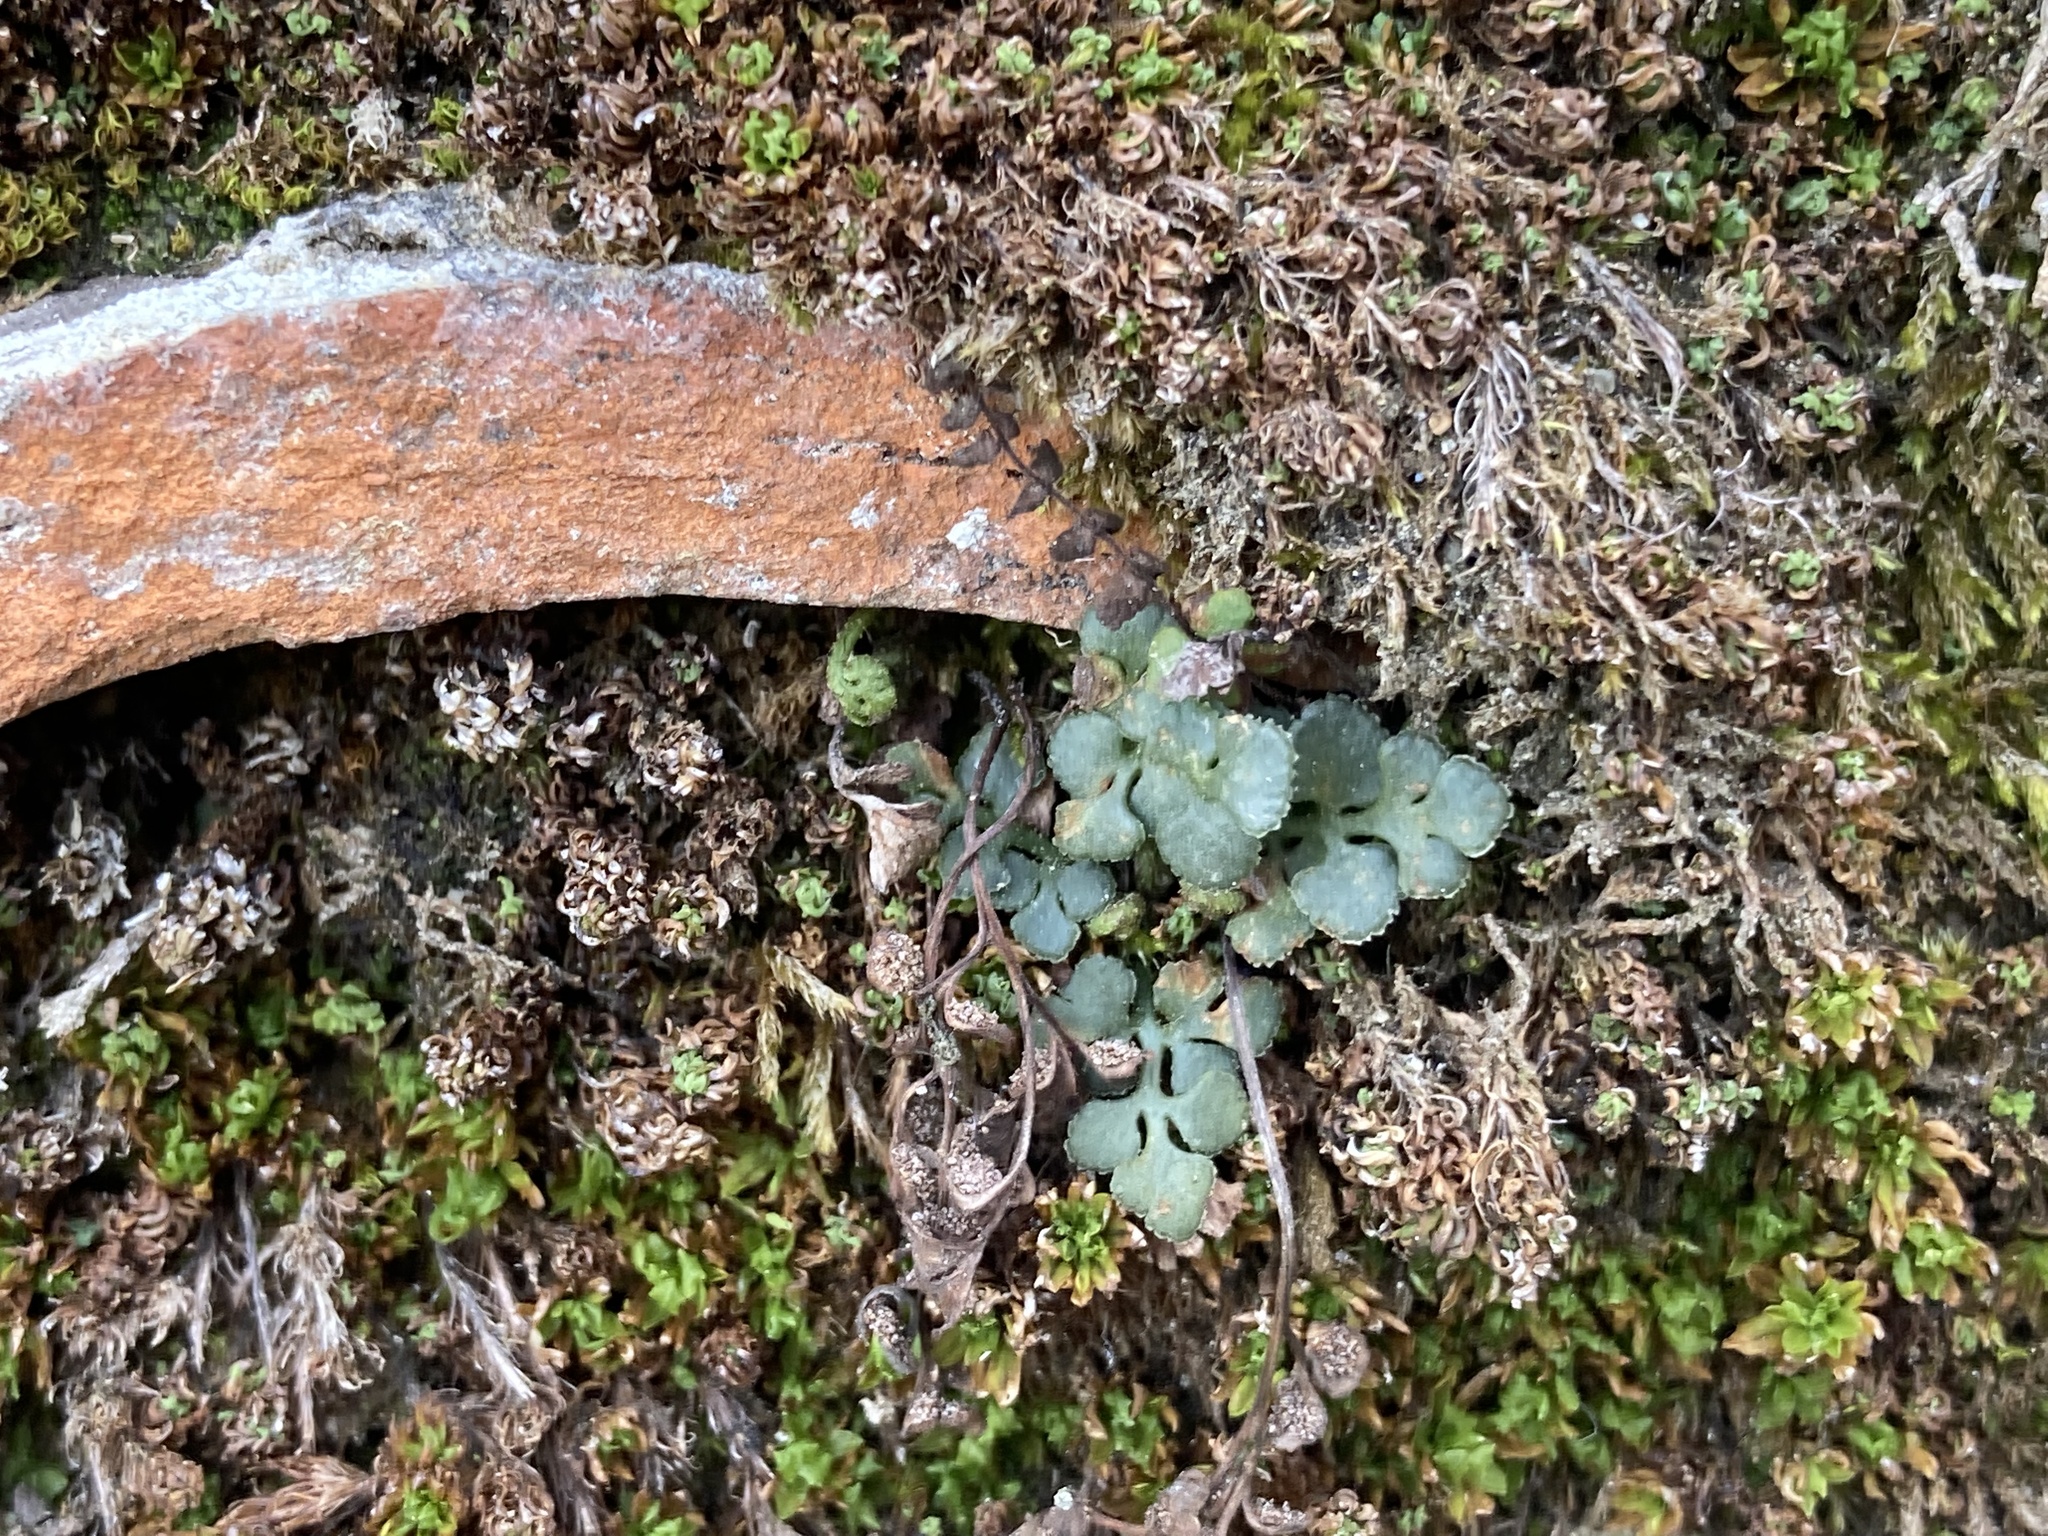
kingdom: Plantae
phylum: Tracheophyta
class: Polypodiopsida
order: Polypodiales
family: Aspleniaceae
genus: Asplenium
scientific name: Asplenium ruta-muraria
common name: Wall-rue
